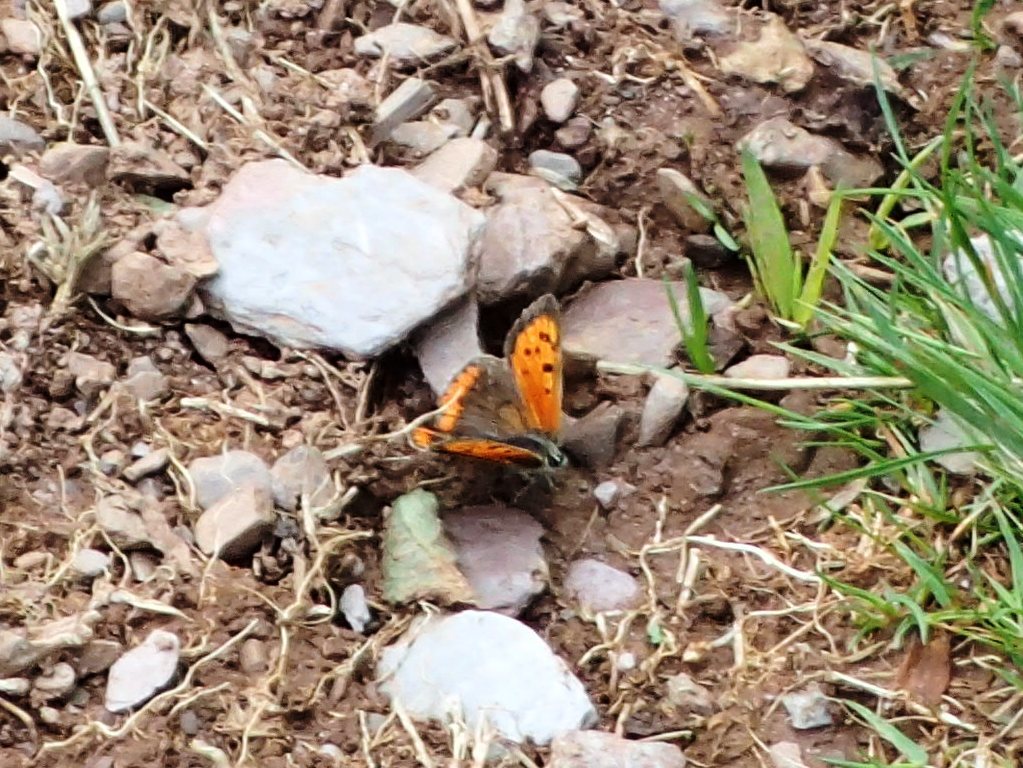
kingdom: Animalia
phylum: Arthropoda
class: Insecta
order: Lepidoptera
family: Lycaenidae
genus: Lycaena
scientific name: Lycaena phlaeas
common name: Small copper
